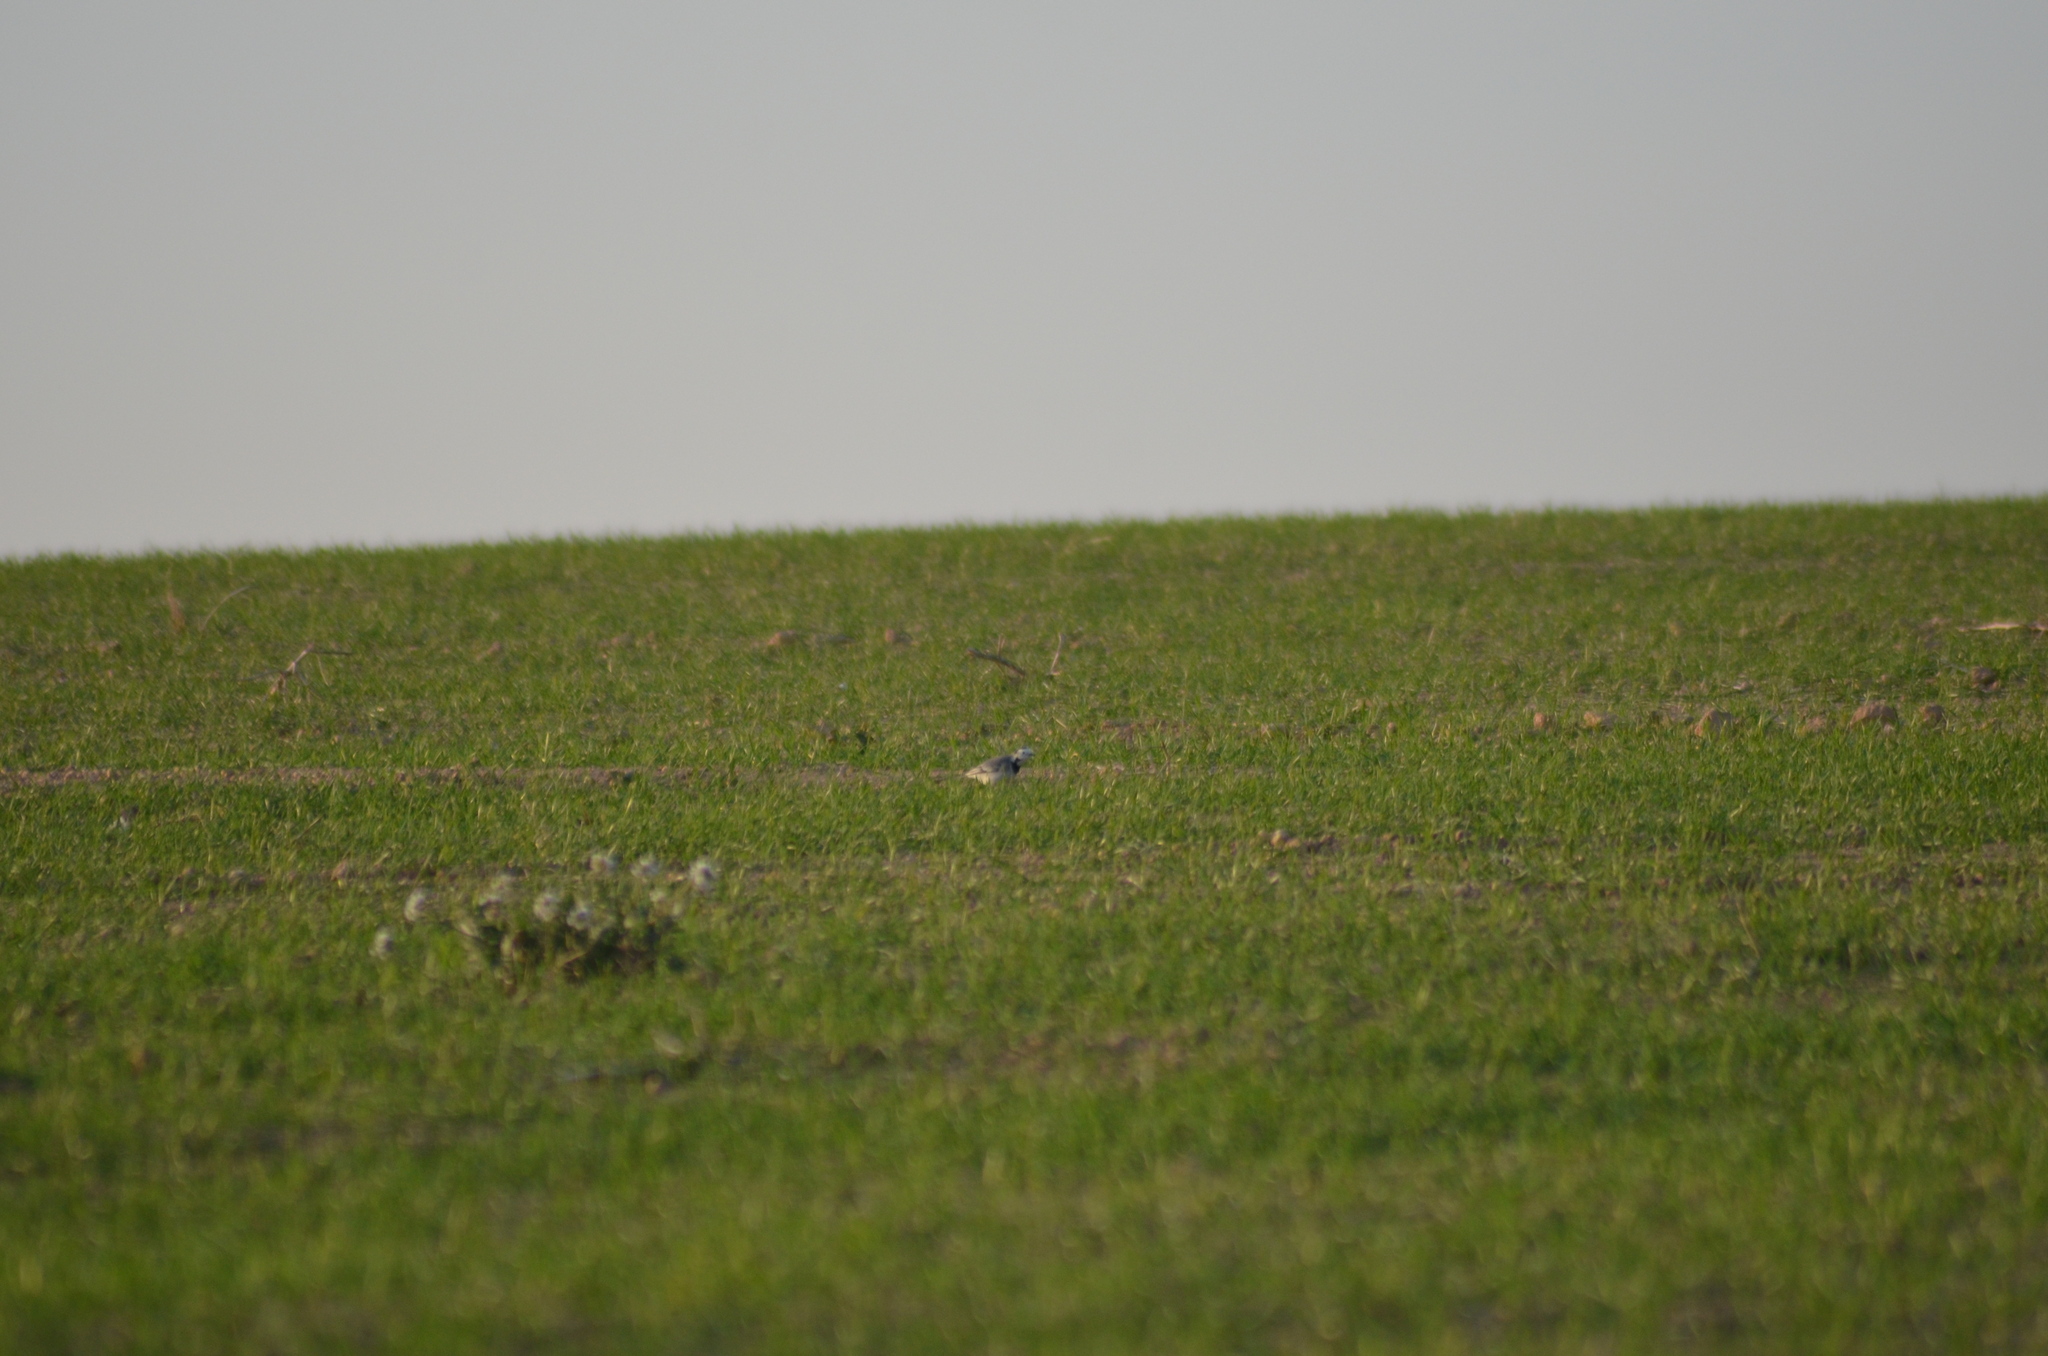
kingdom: Animalia
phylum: Chordata
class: Aves
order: Passeriformes
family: Motacillidae
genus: Motacilla
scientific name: Motacilla alba
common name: White wagtail
